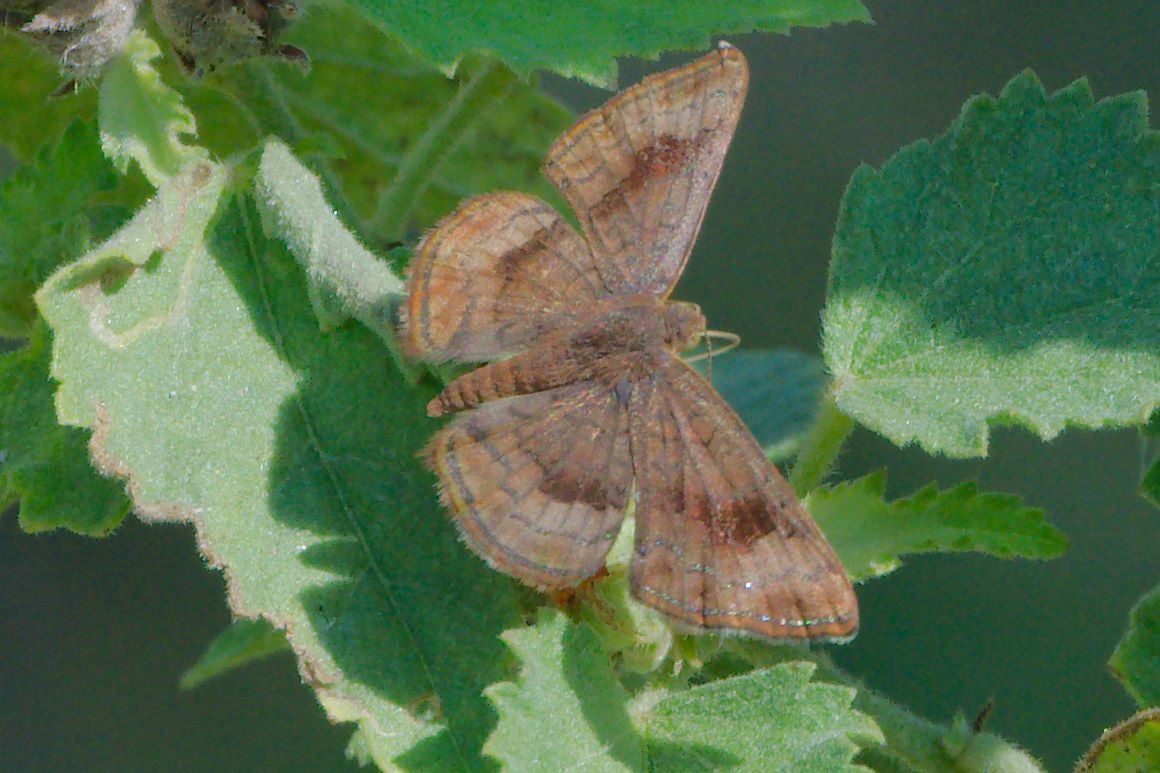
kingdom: Animalia
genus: Calephelis
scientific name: Calephelis nemesis
